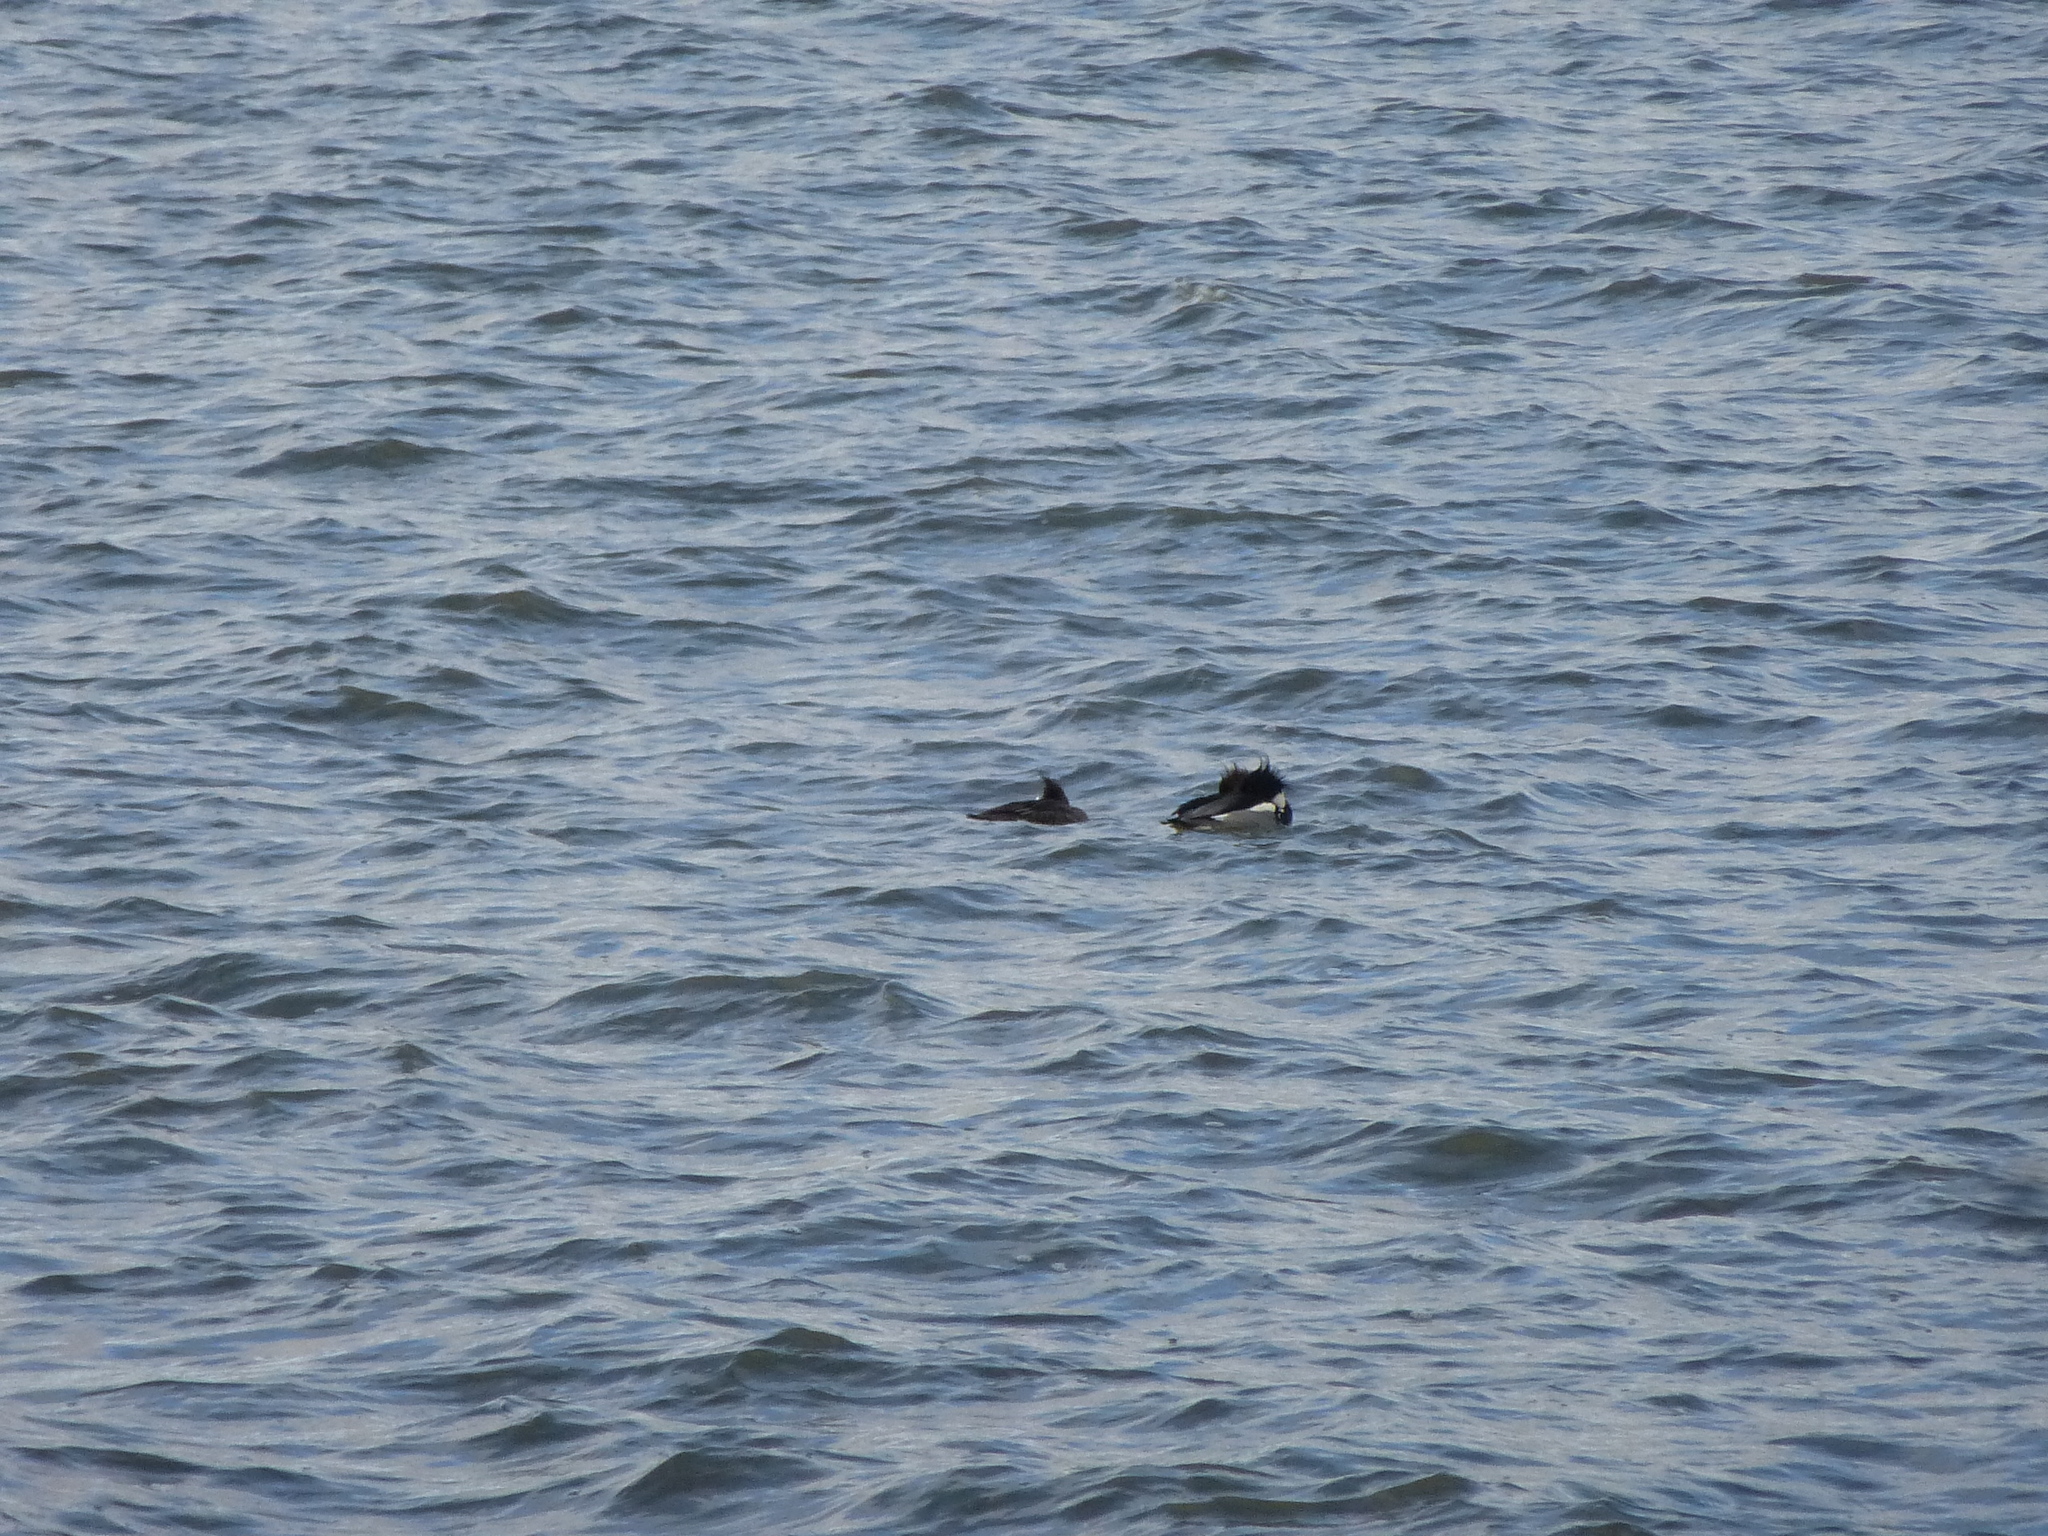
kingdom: Animalia
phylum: Chordata
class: Aves
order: Anseriformes
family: Anatidae
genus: Mergus
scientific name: Mergus serrator
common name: Red-breasted merganser
